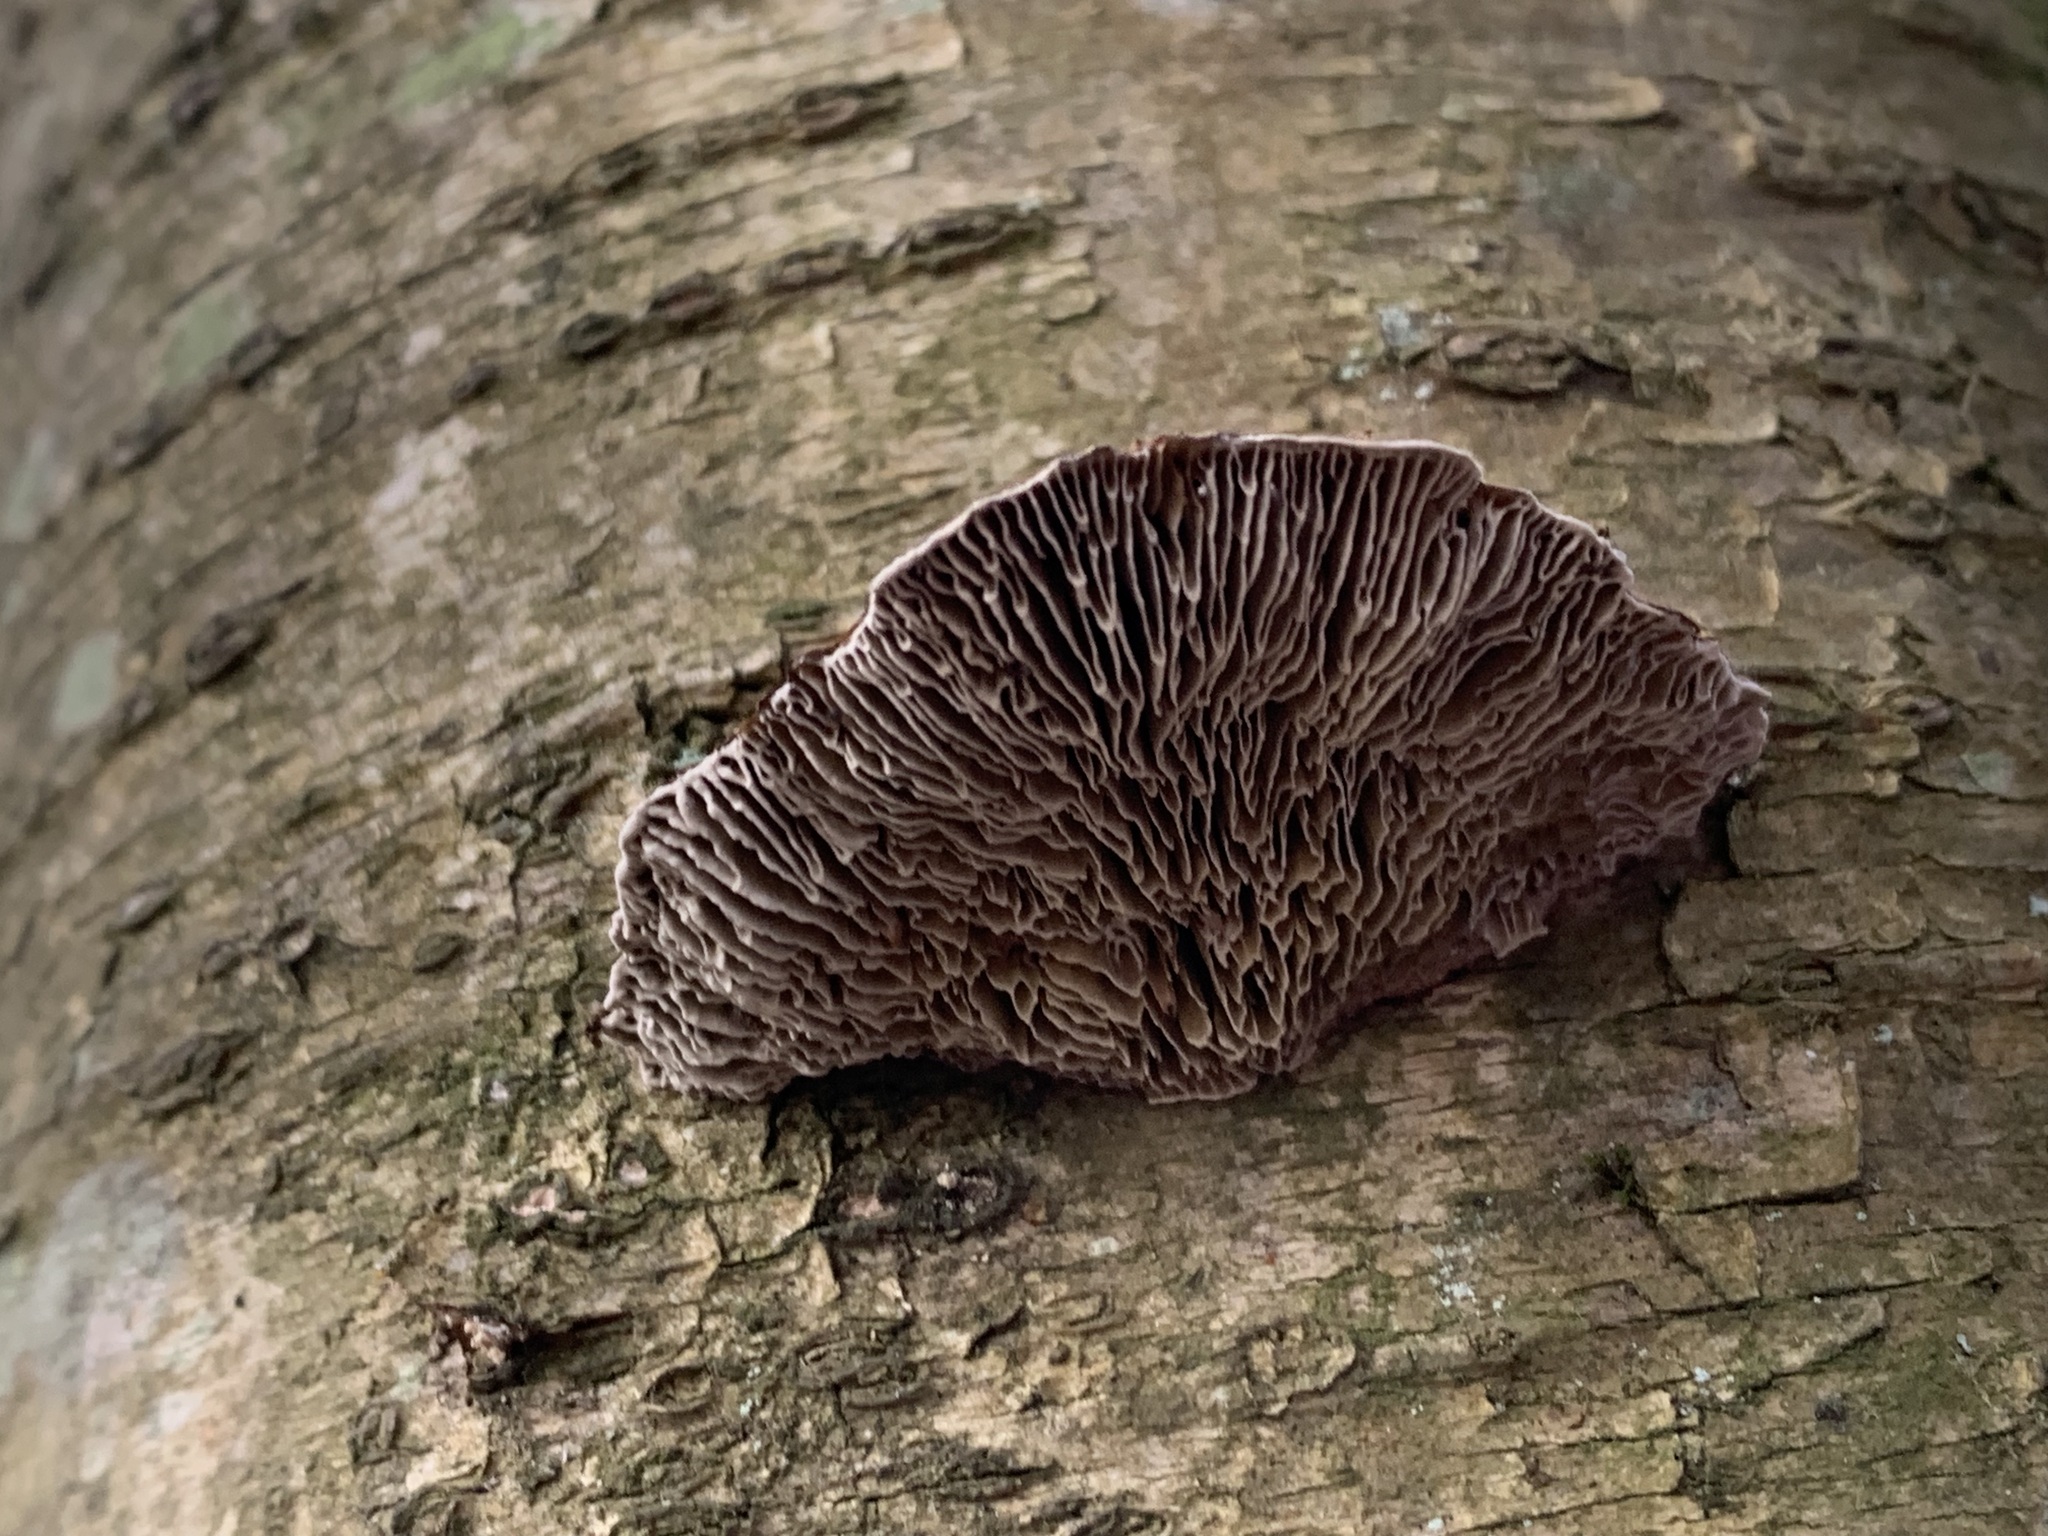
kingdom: Fungi
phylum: Basidiomycota
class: Agaricomycetes
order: Polyporales
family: Polyporaceae
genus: Daedaleopsis
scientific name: Daedaleopsis confragosa
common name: Blushing bracket
